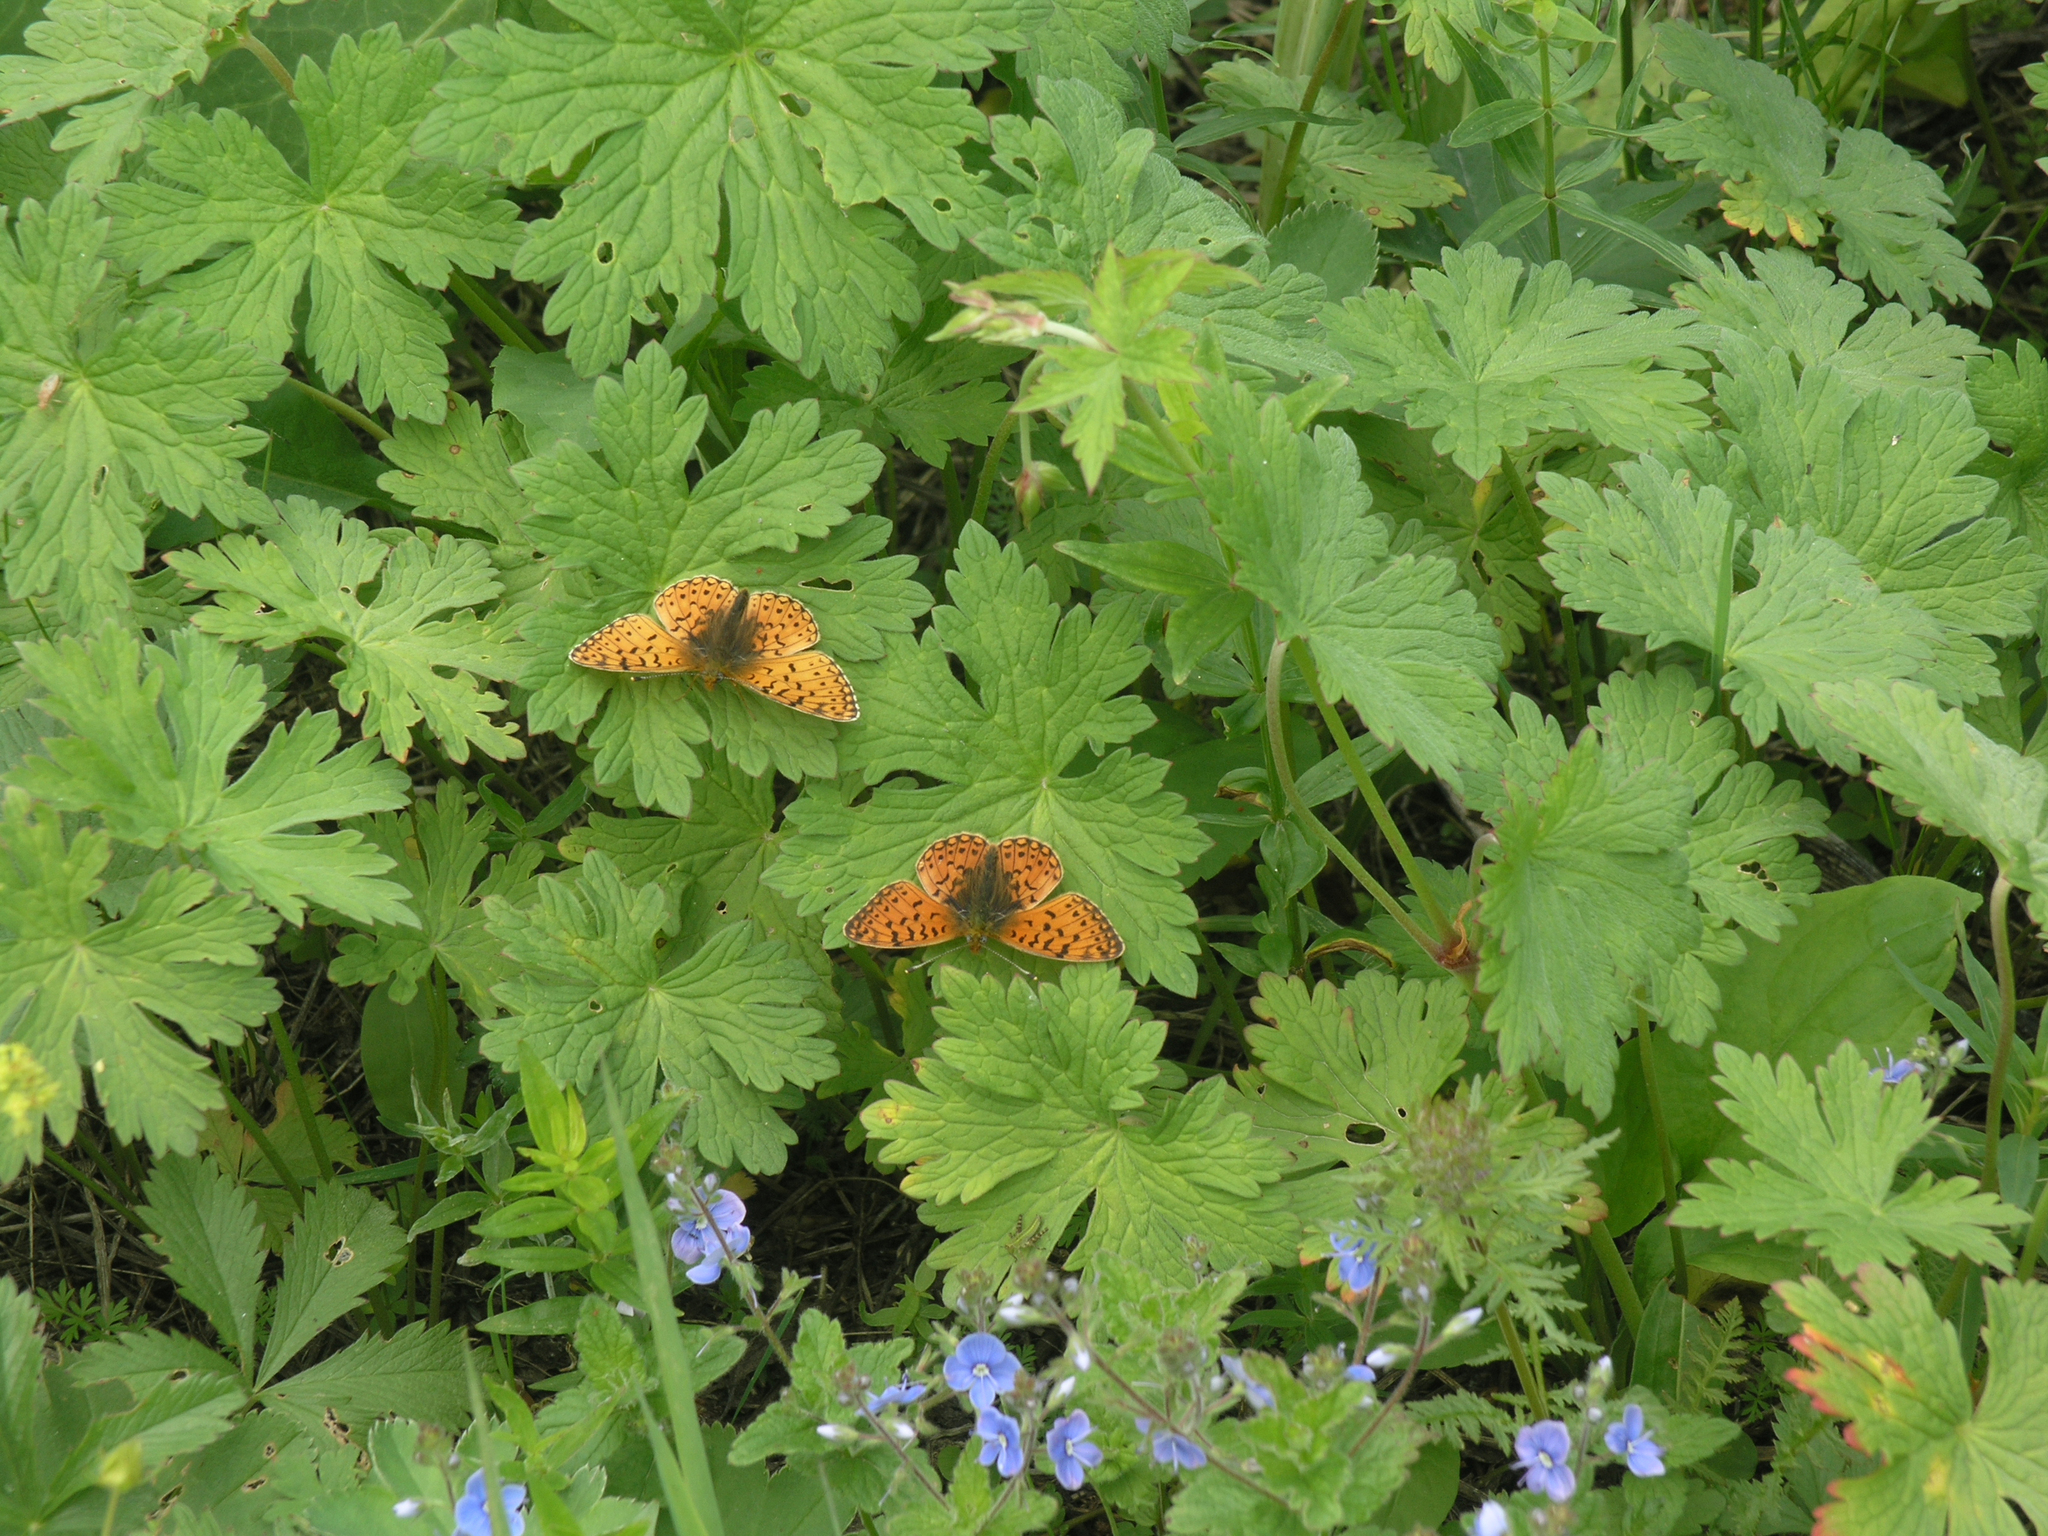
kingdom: Animalia
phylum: Arthropoda
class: Insecta
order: Lepidoptera
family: Nymphalidae
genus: Boloria
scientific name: Boloria erubescens
